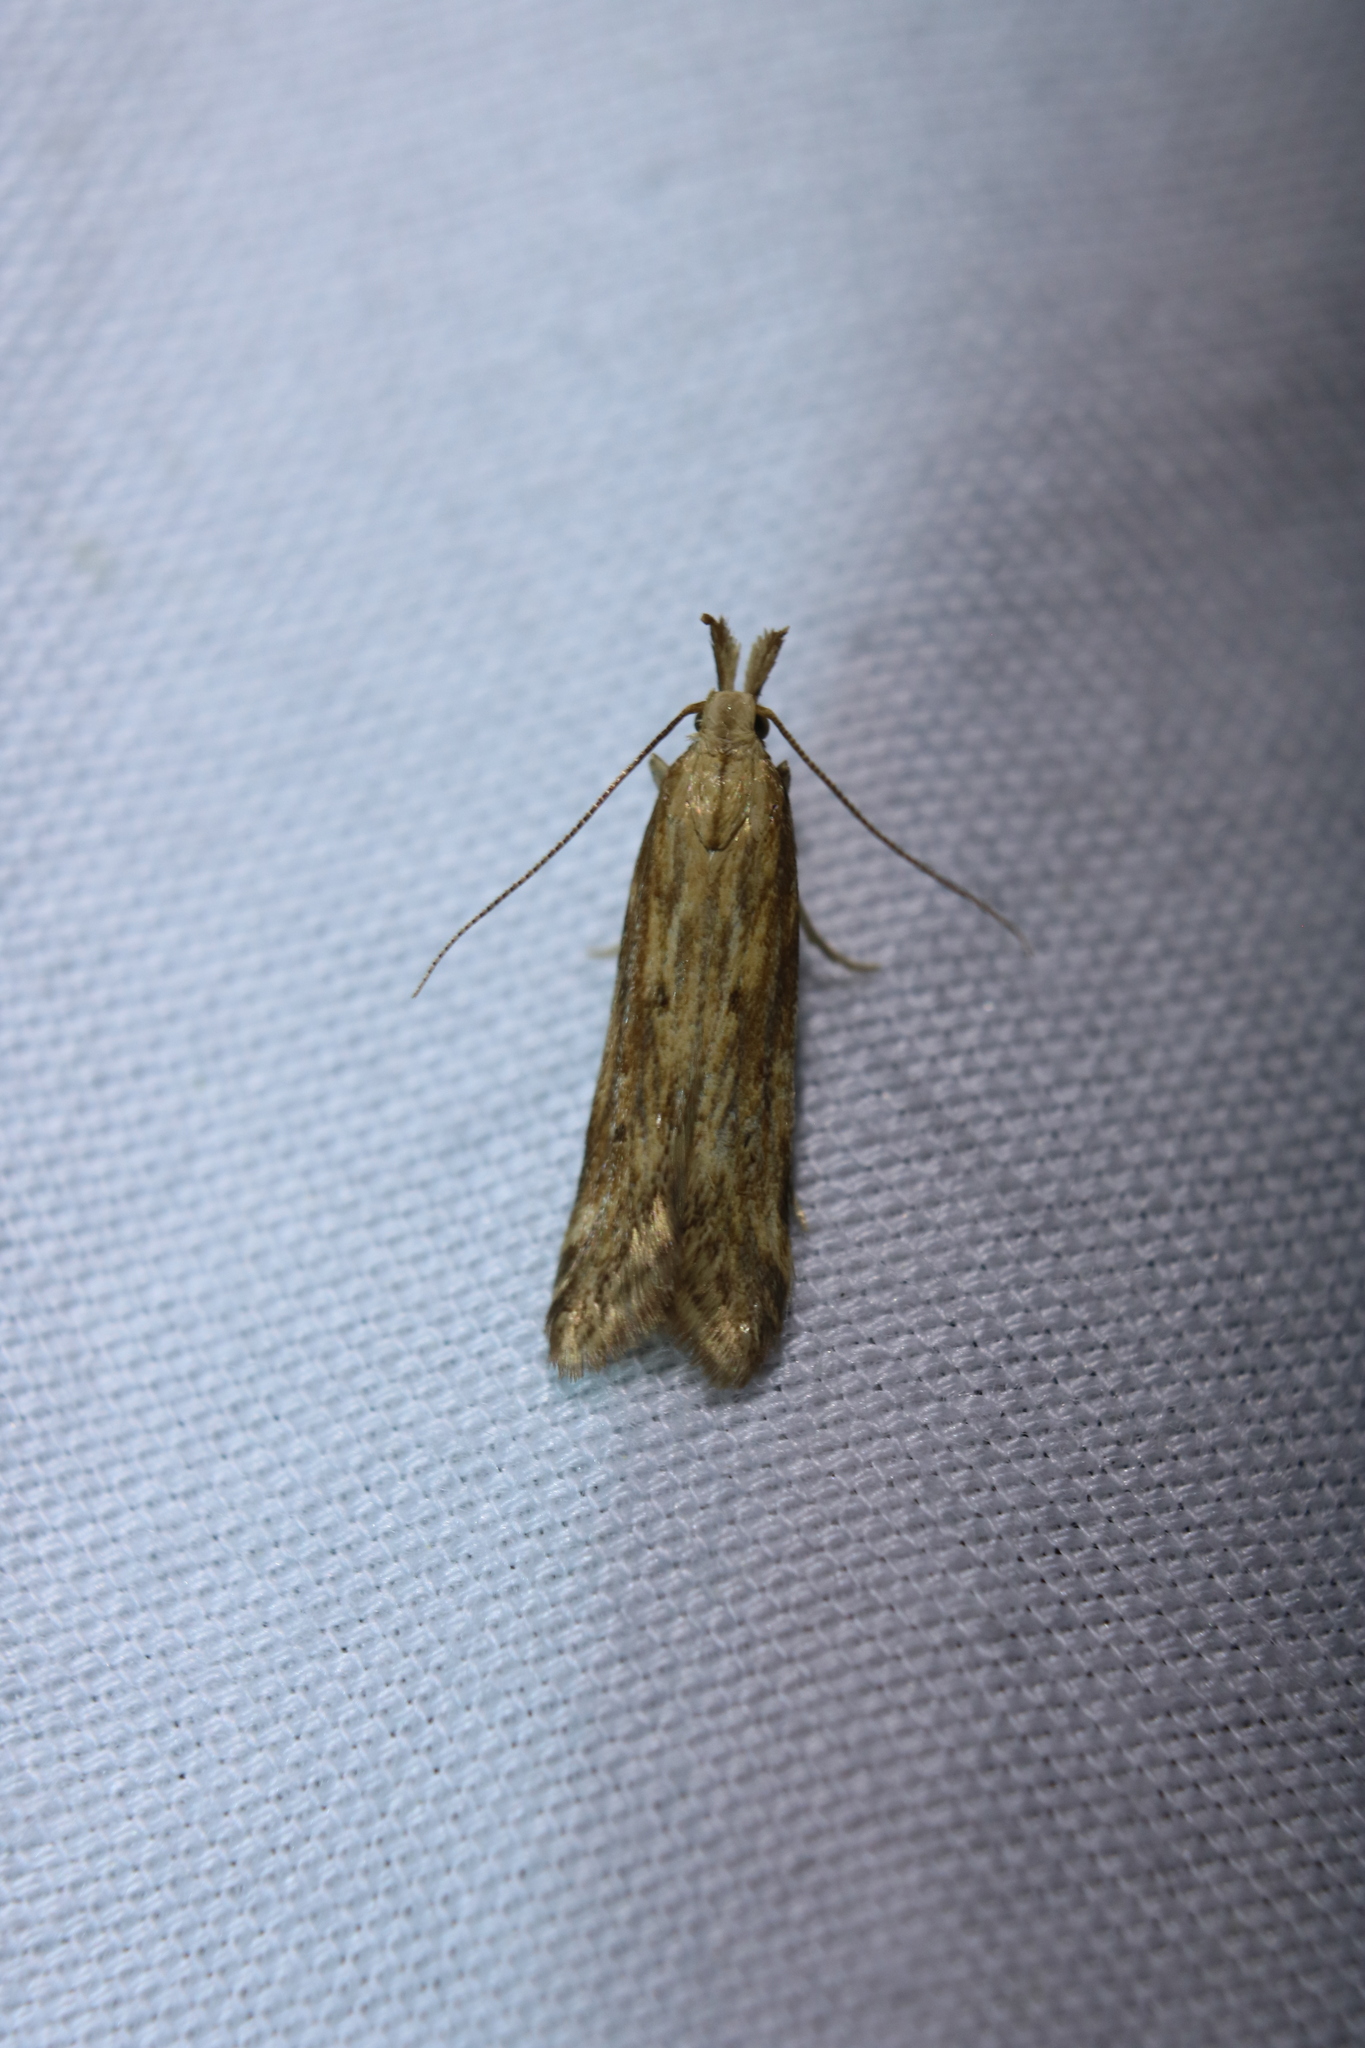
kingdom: Animalia
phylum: Arthropoda
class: Insecta
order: Lepidoptera
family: Gelechiidae
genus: Metzneria
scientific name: Metzneria lappella
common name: Burdock neb
